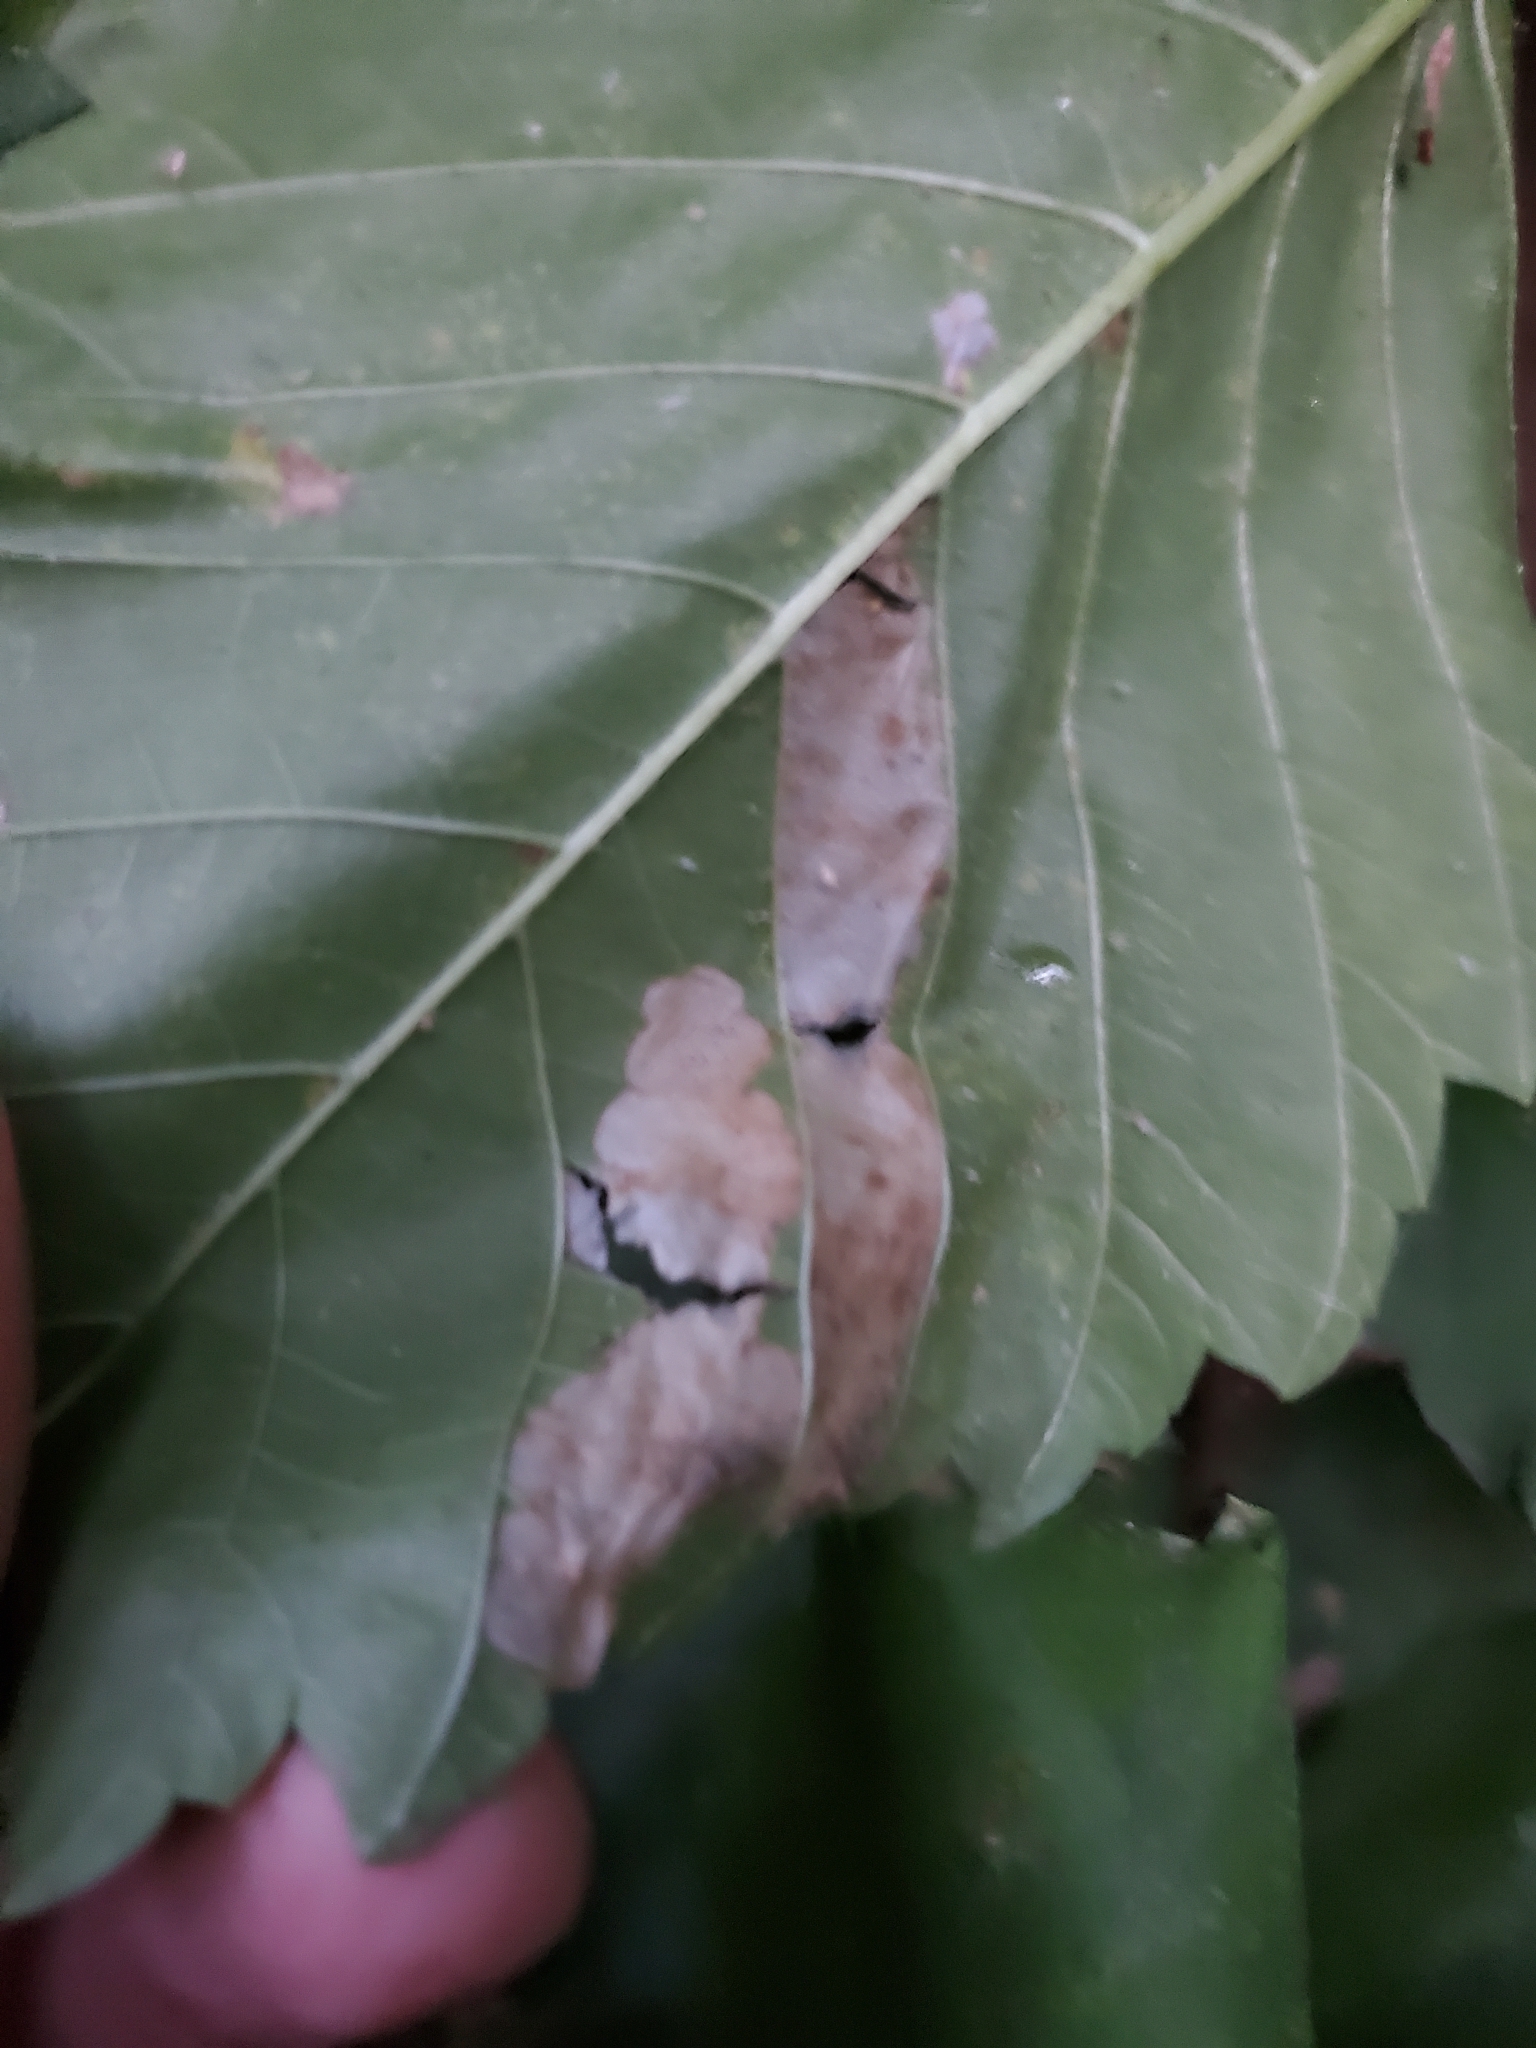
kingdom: Animalia
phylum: Arthropoda
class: Insecta
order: Hymenoptera
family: Tenthredinidae
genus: Fenusa
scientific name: Fenusa ulmi
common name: Elm leafminer
